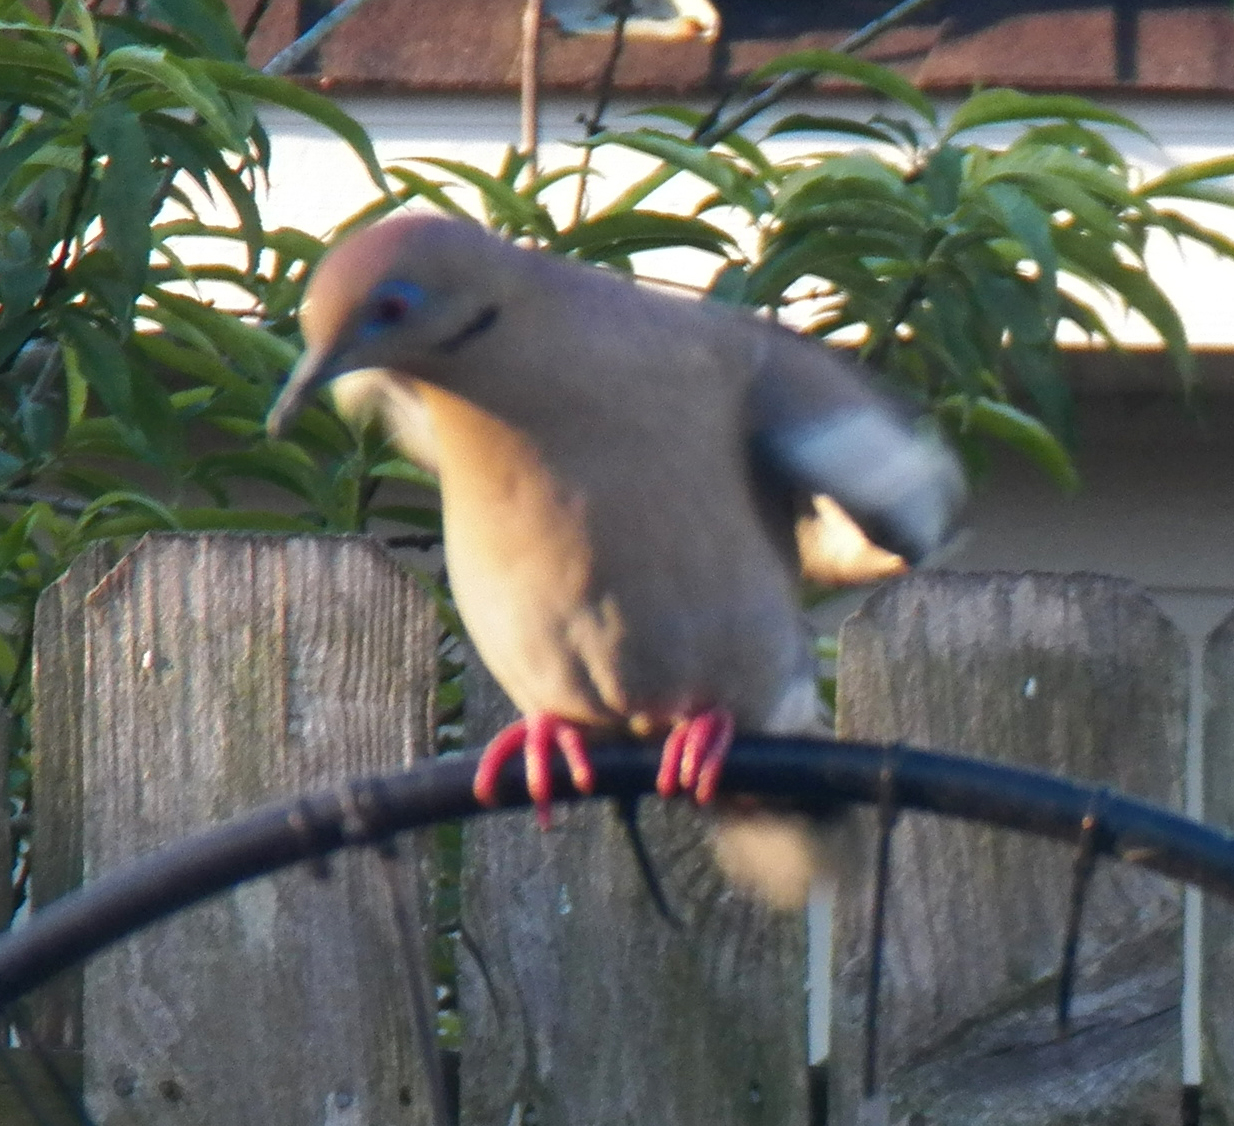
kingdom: Animalia
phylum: Chordata
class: Aves
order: Columbiformes
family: Columbidae
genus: Zenaida
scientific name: Zenaida asiatica
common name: White-winged dove
